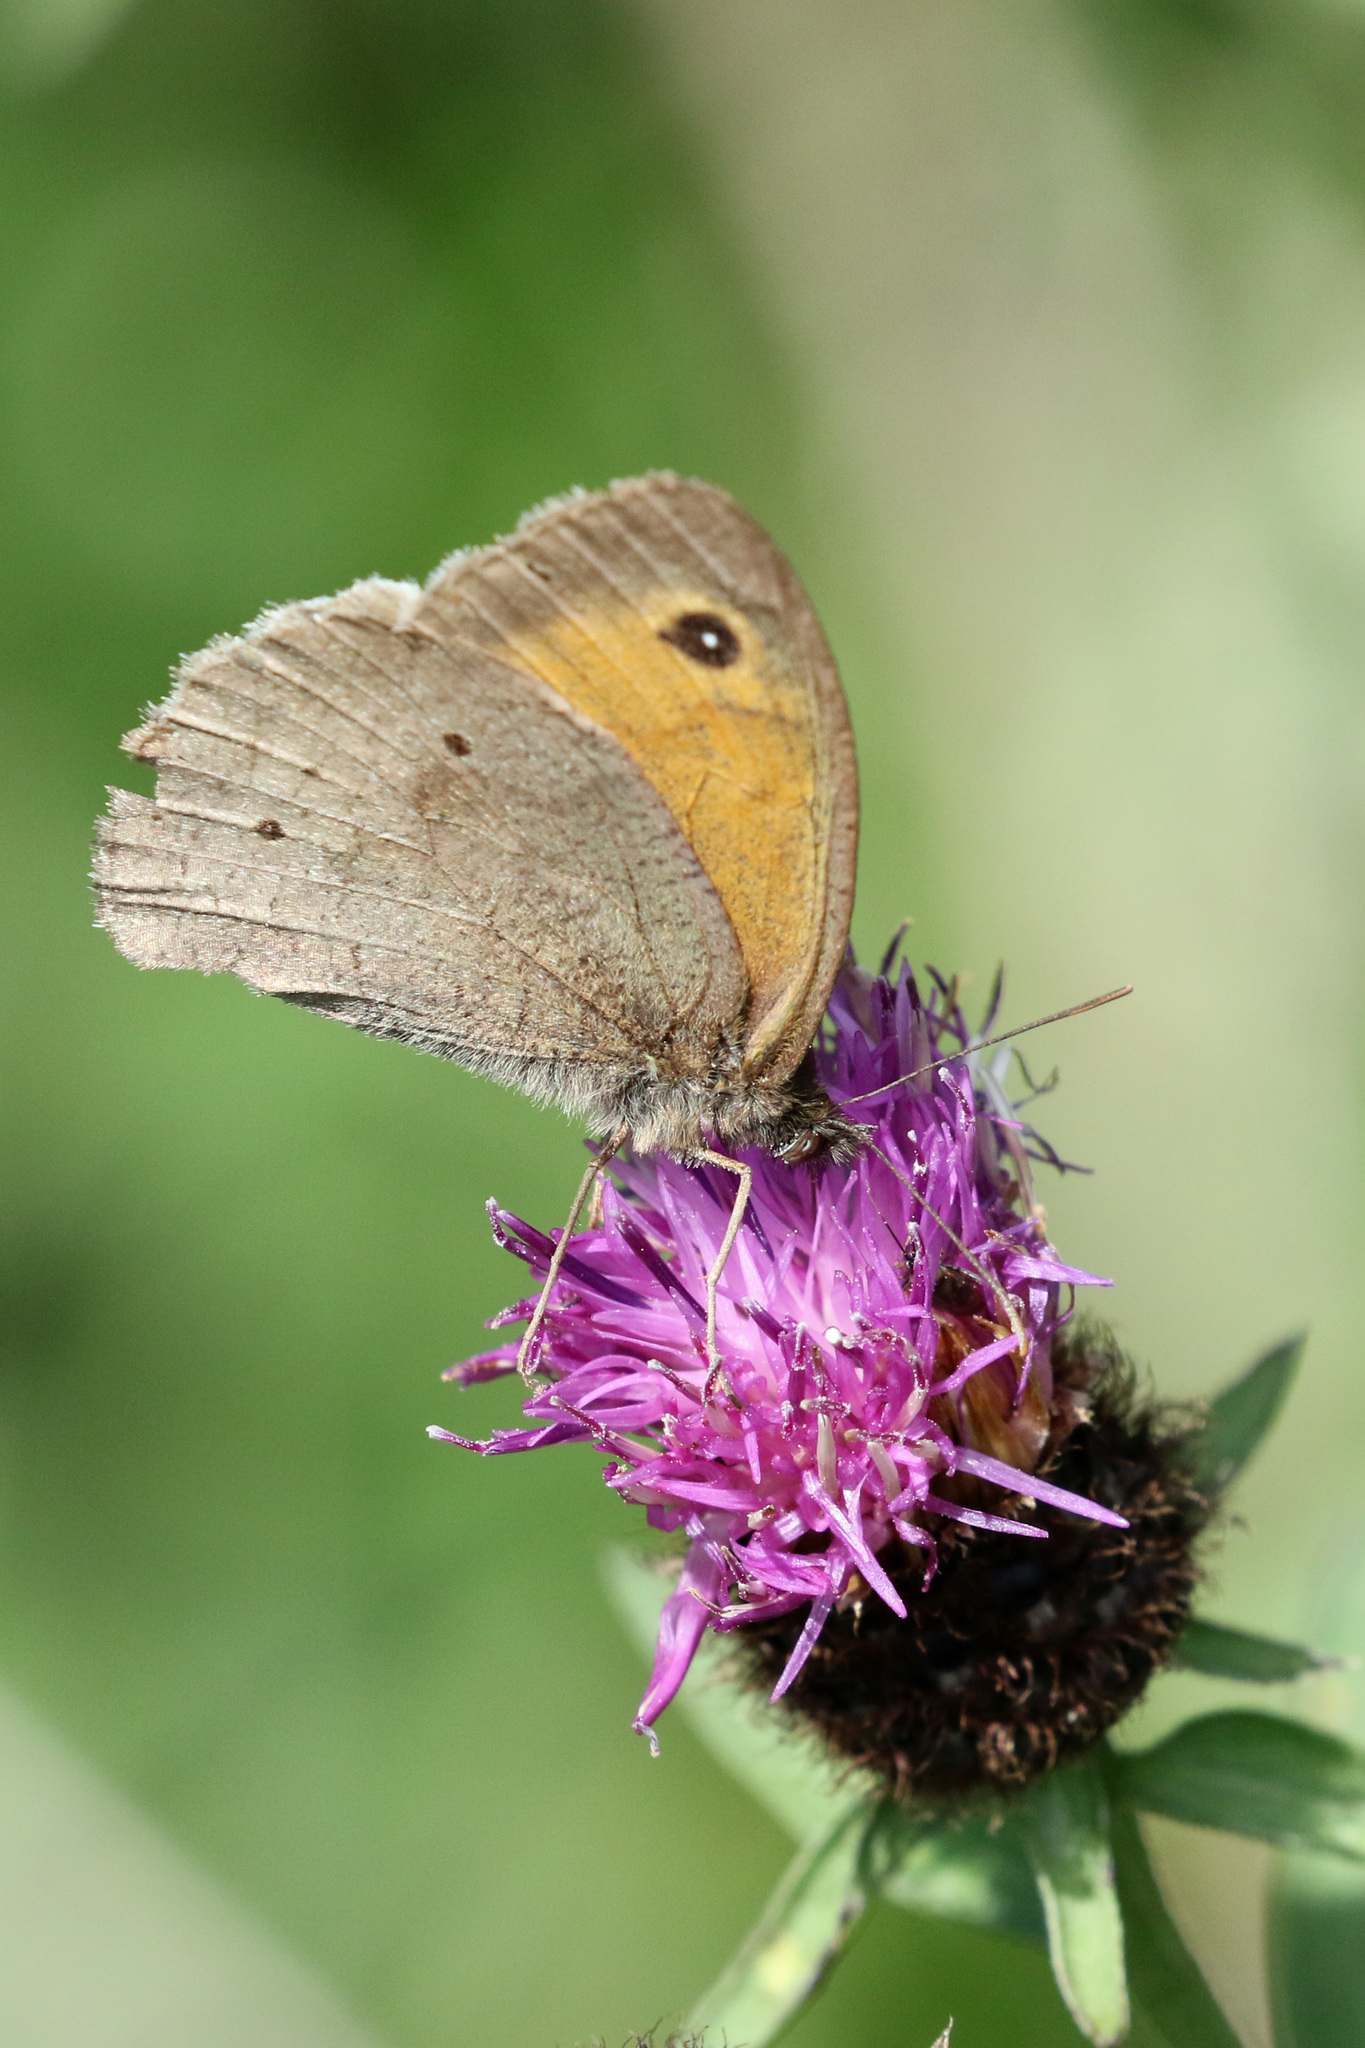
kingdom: Animalia
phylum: Arthropoda
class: Insecta
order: Lepidoptera
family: Nymphalidae
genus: Maniola
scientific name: Maniola jurtina
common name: Meadow brown
